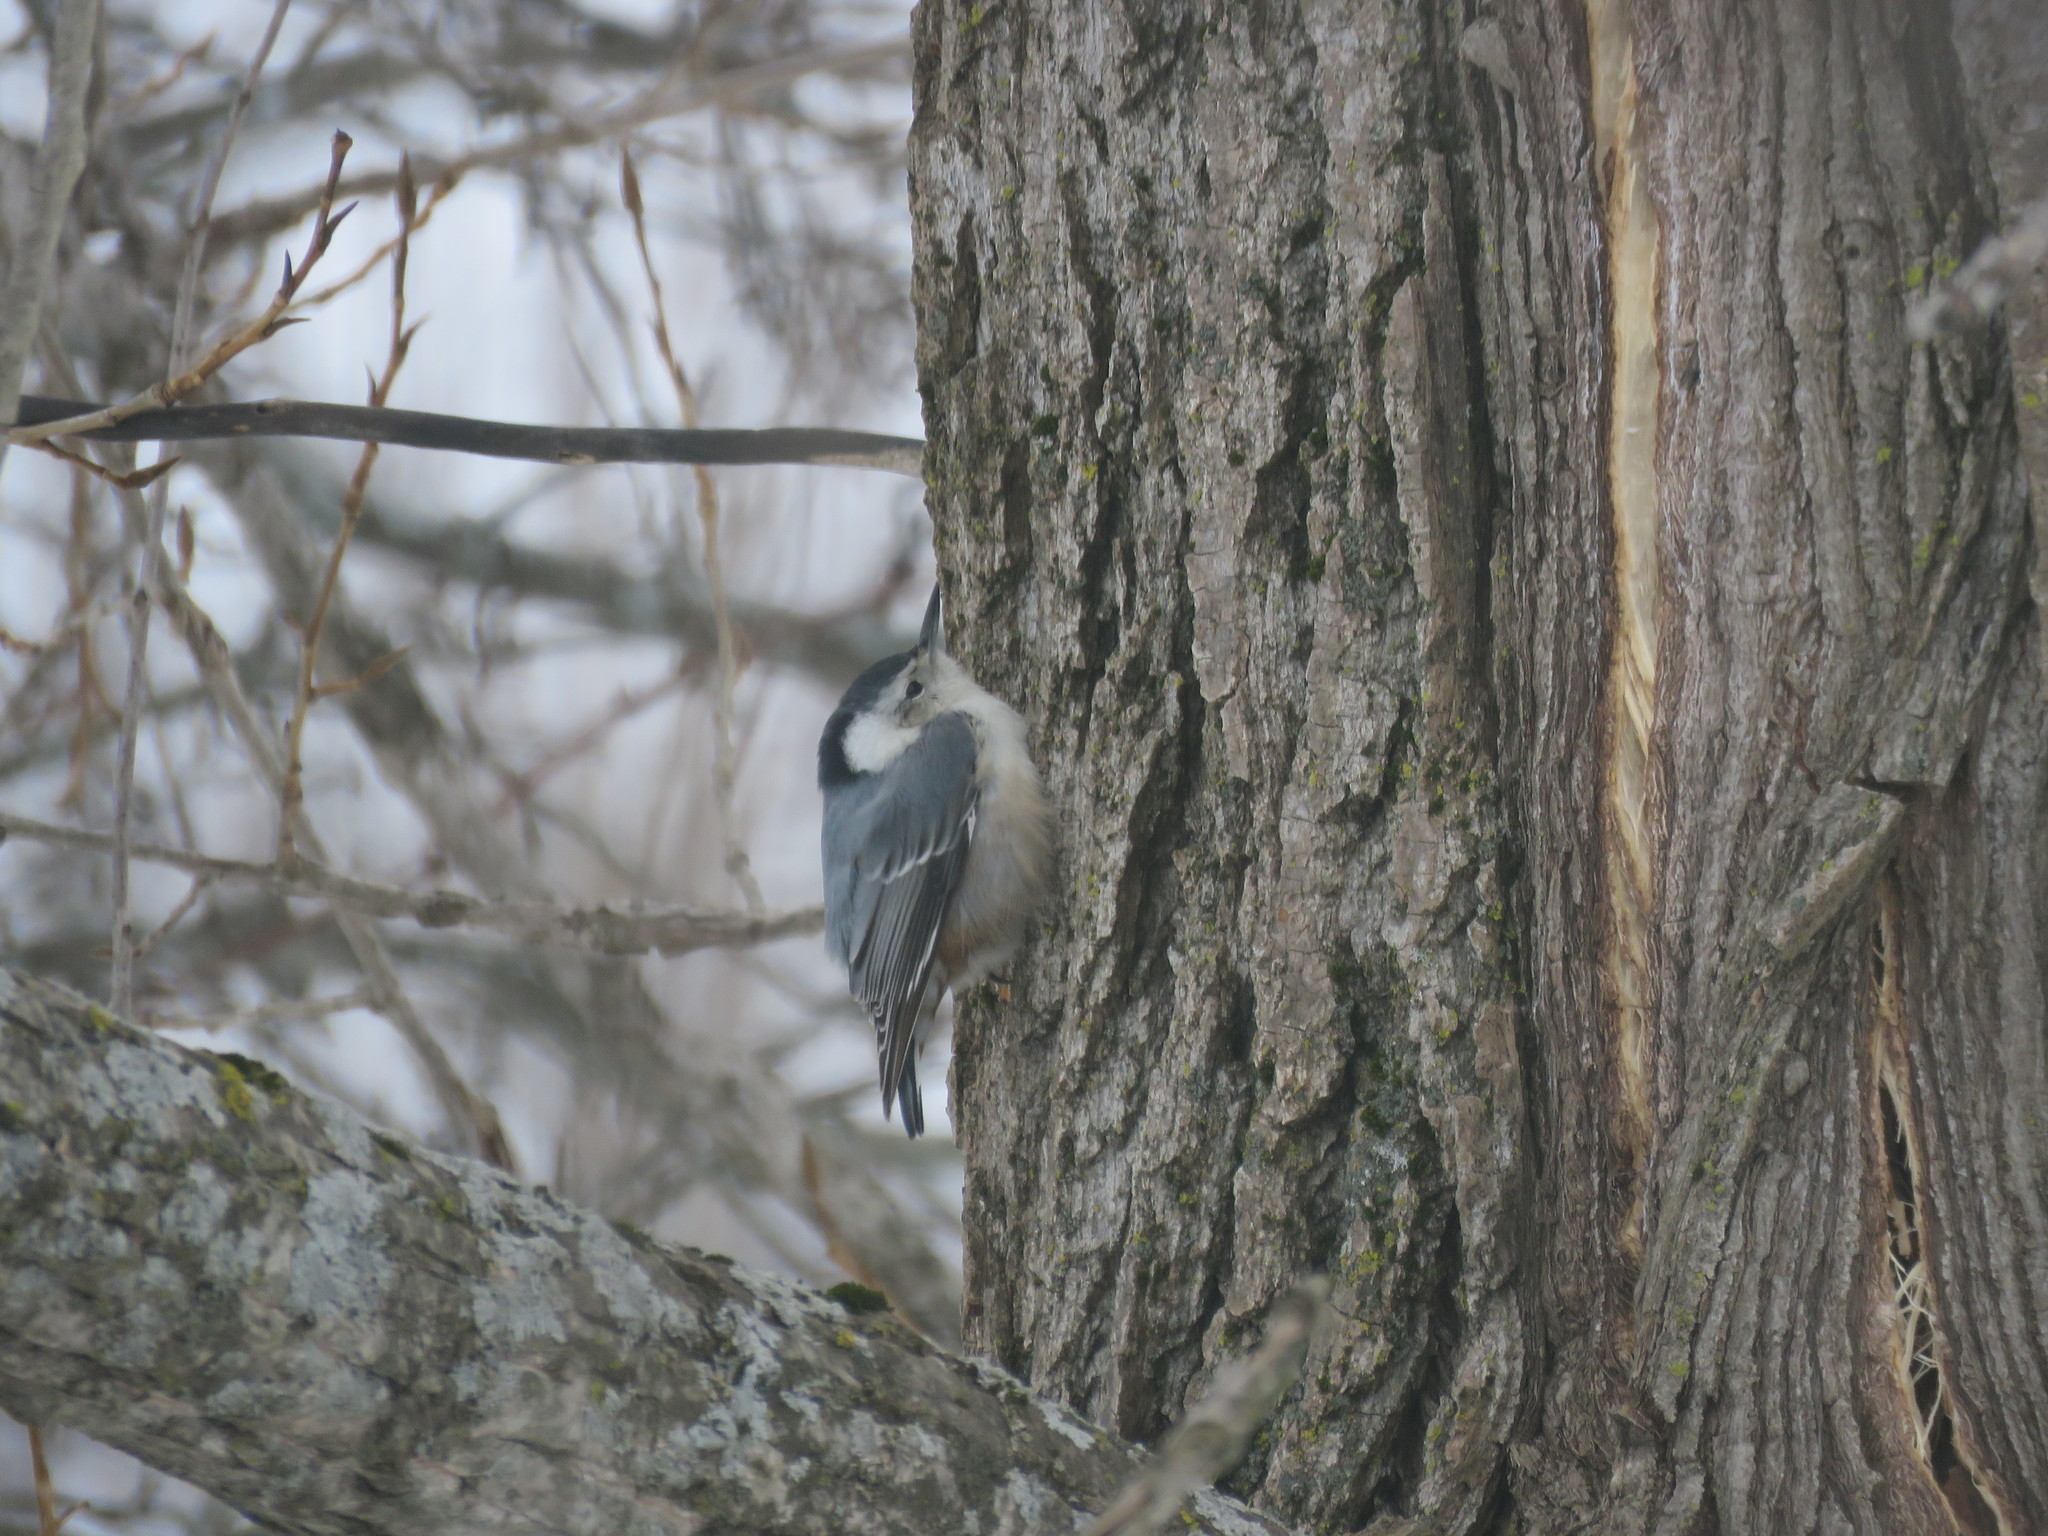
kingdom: Animalia
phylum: Chordata
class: Aves
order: Passeriformes
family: Sittidae
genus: Sitta
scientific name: Sitta carolinensis
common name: White-breasted nuthatch
